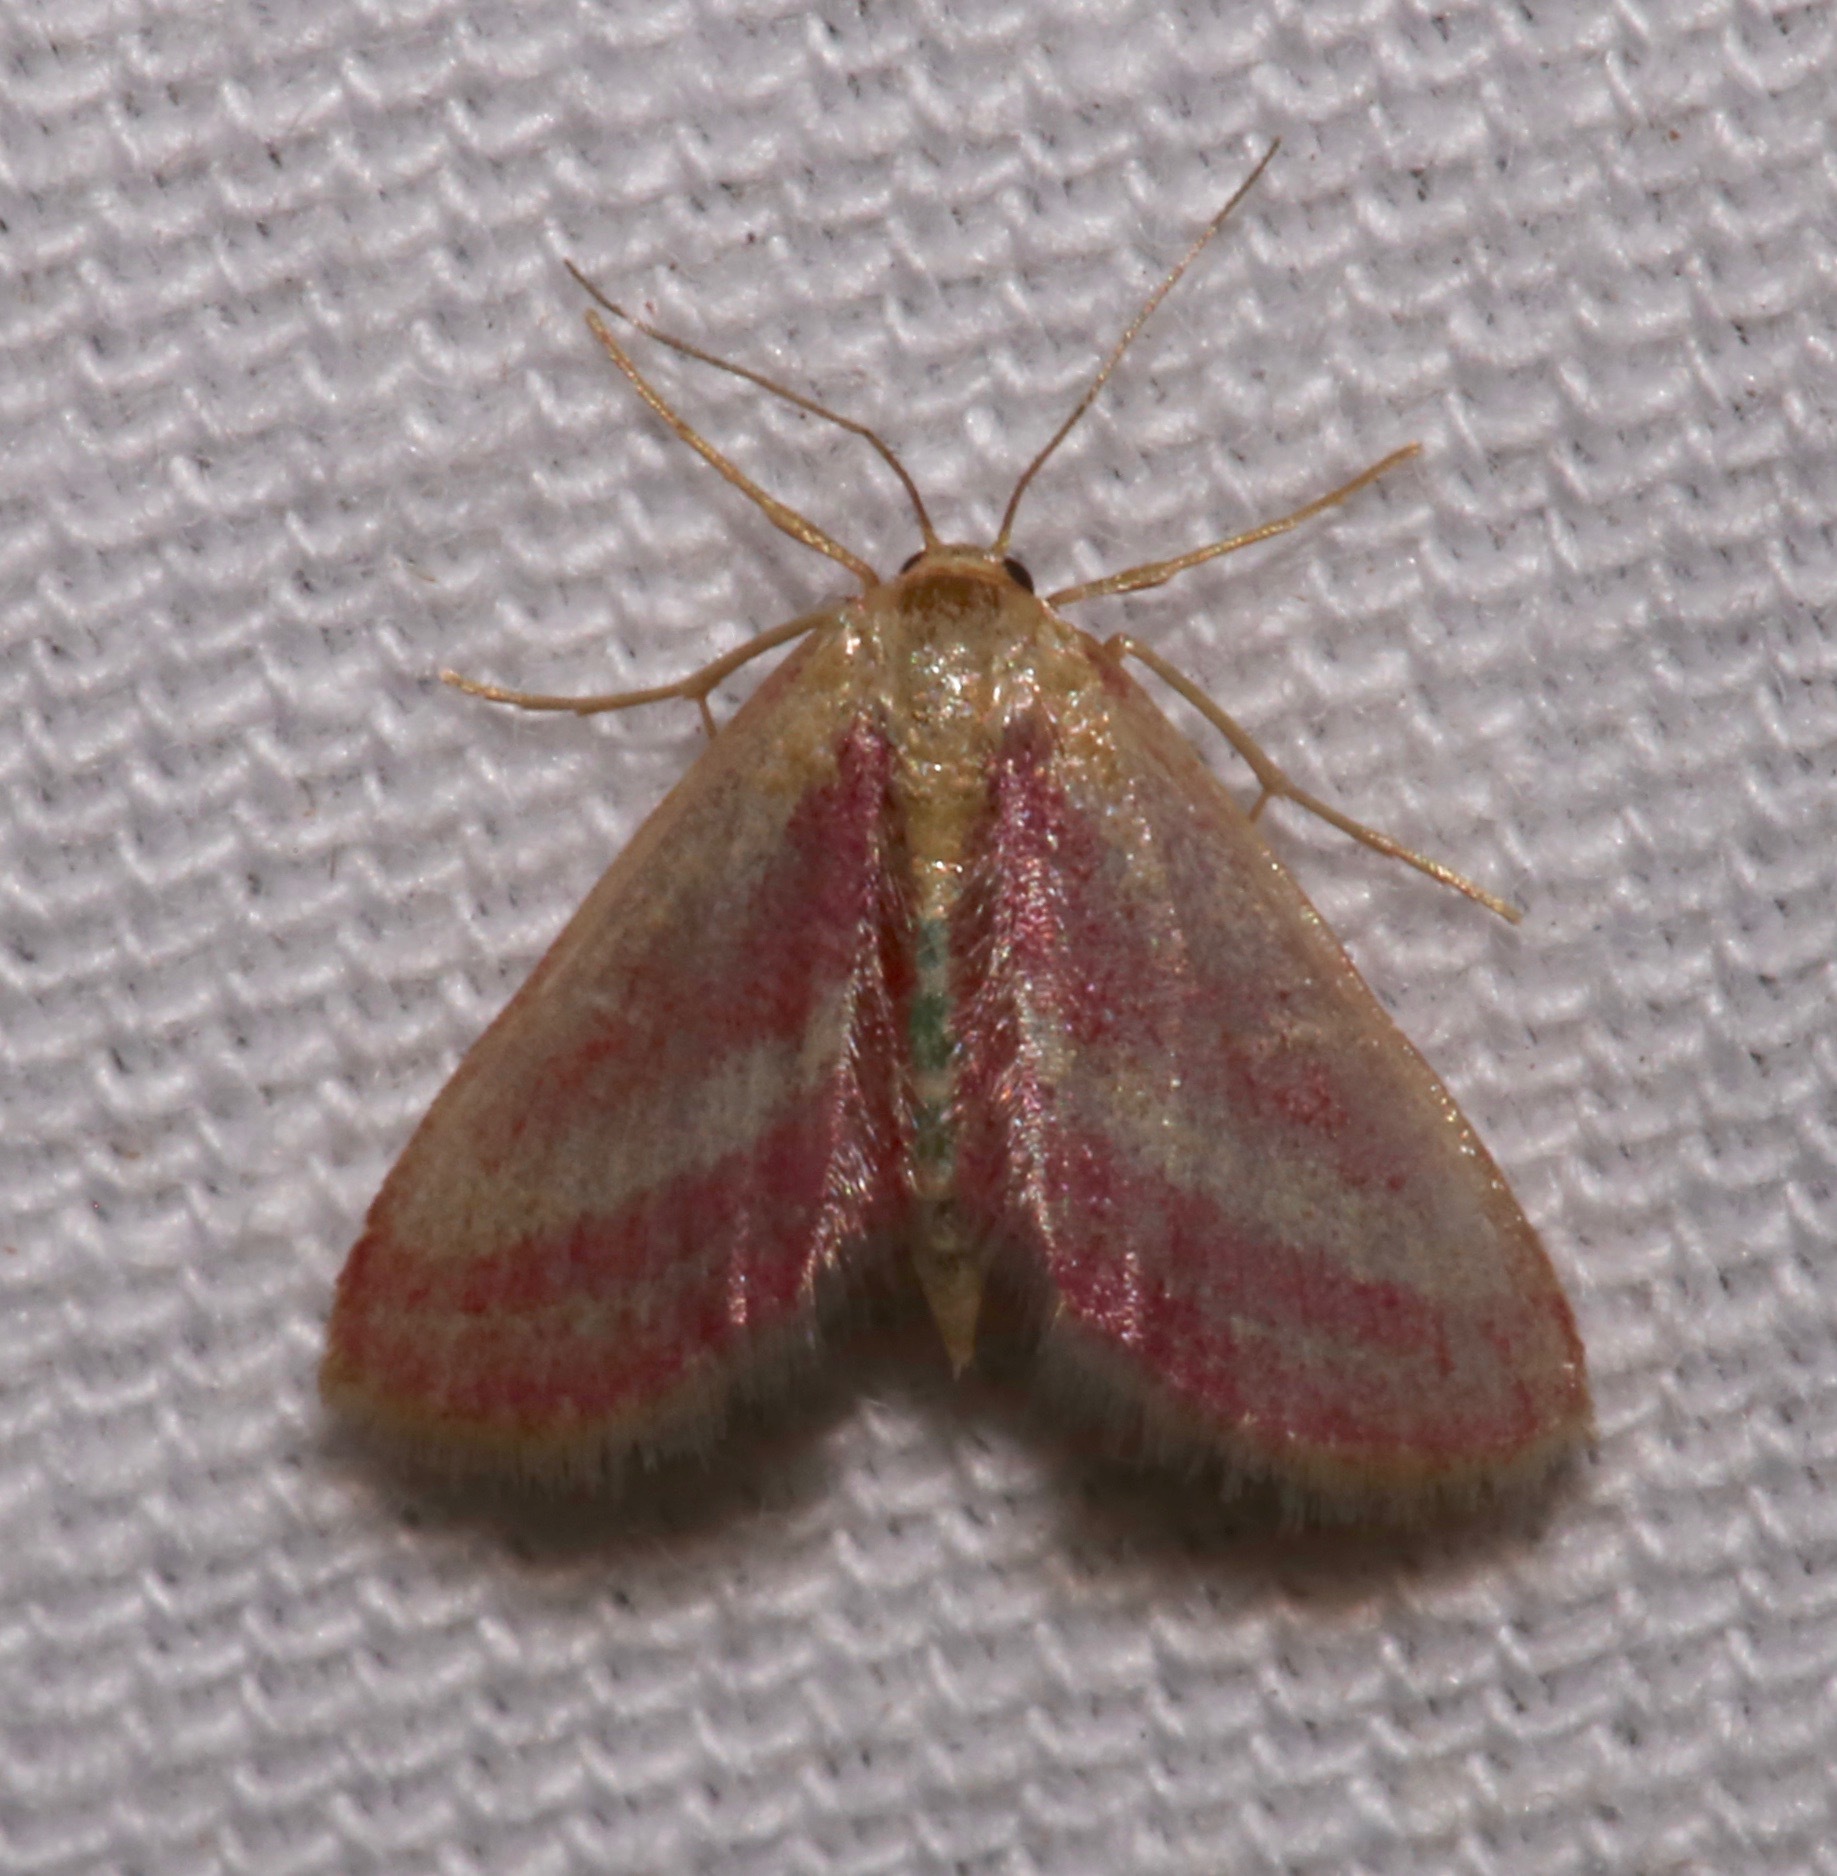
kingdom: Animalia
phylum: Arthropoda
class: Insecta
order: Lepidoptera
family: Geometridae
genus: Leptostales
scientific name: Leptostales laevitaria
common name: Raspberry wave moth
